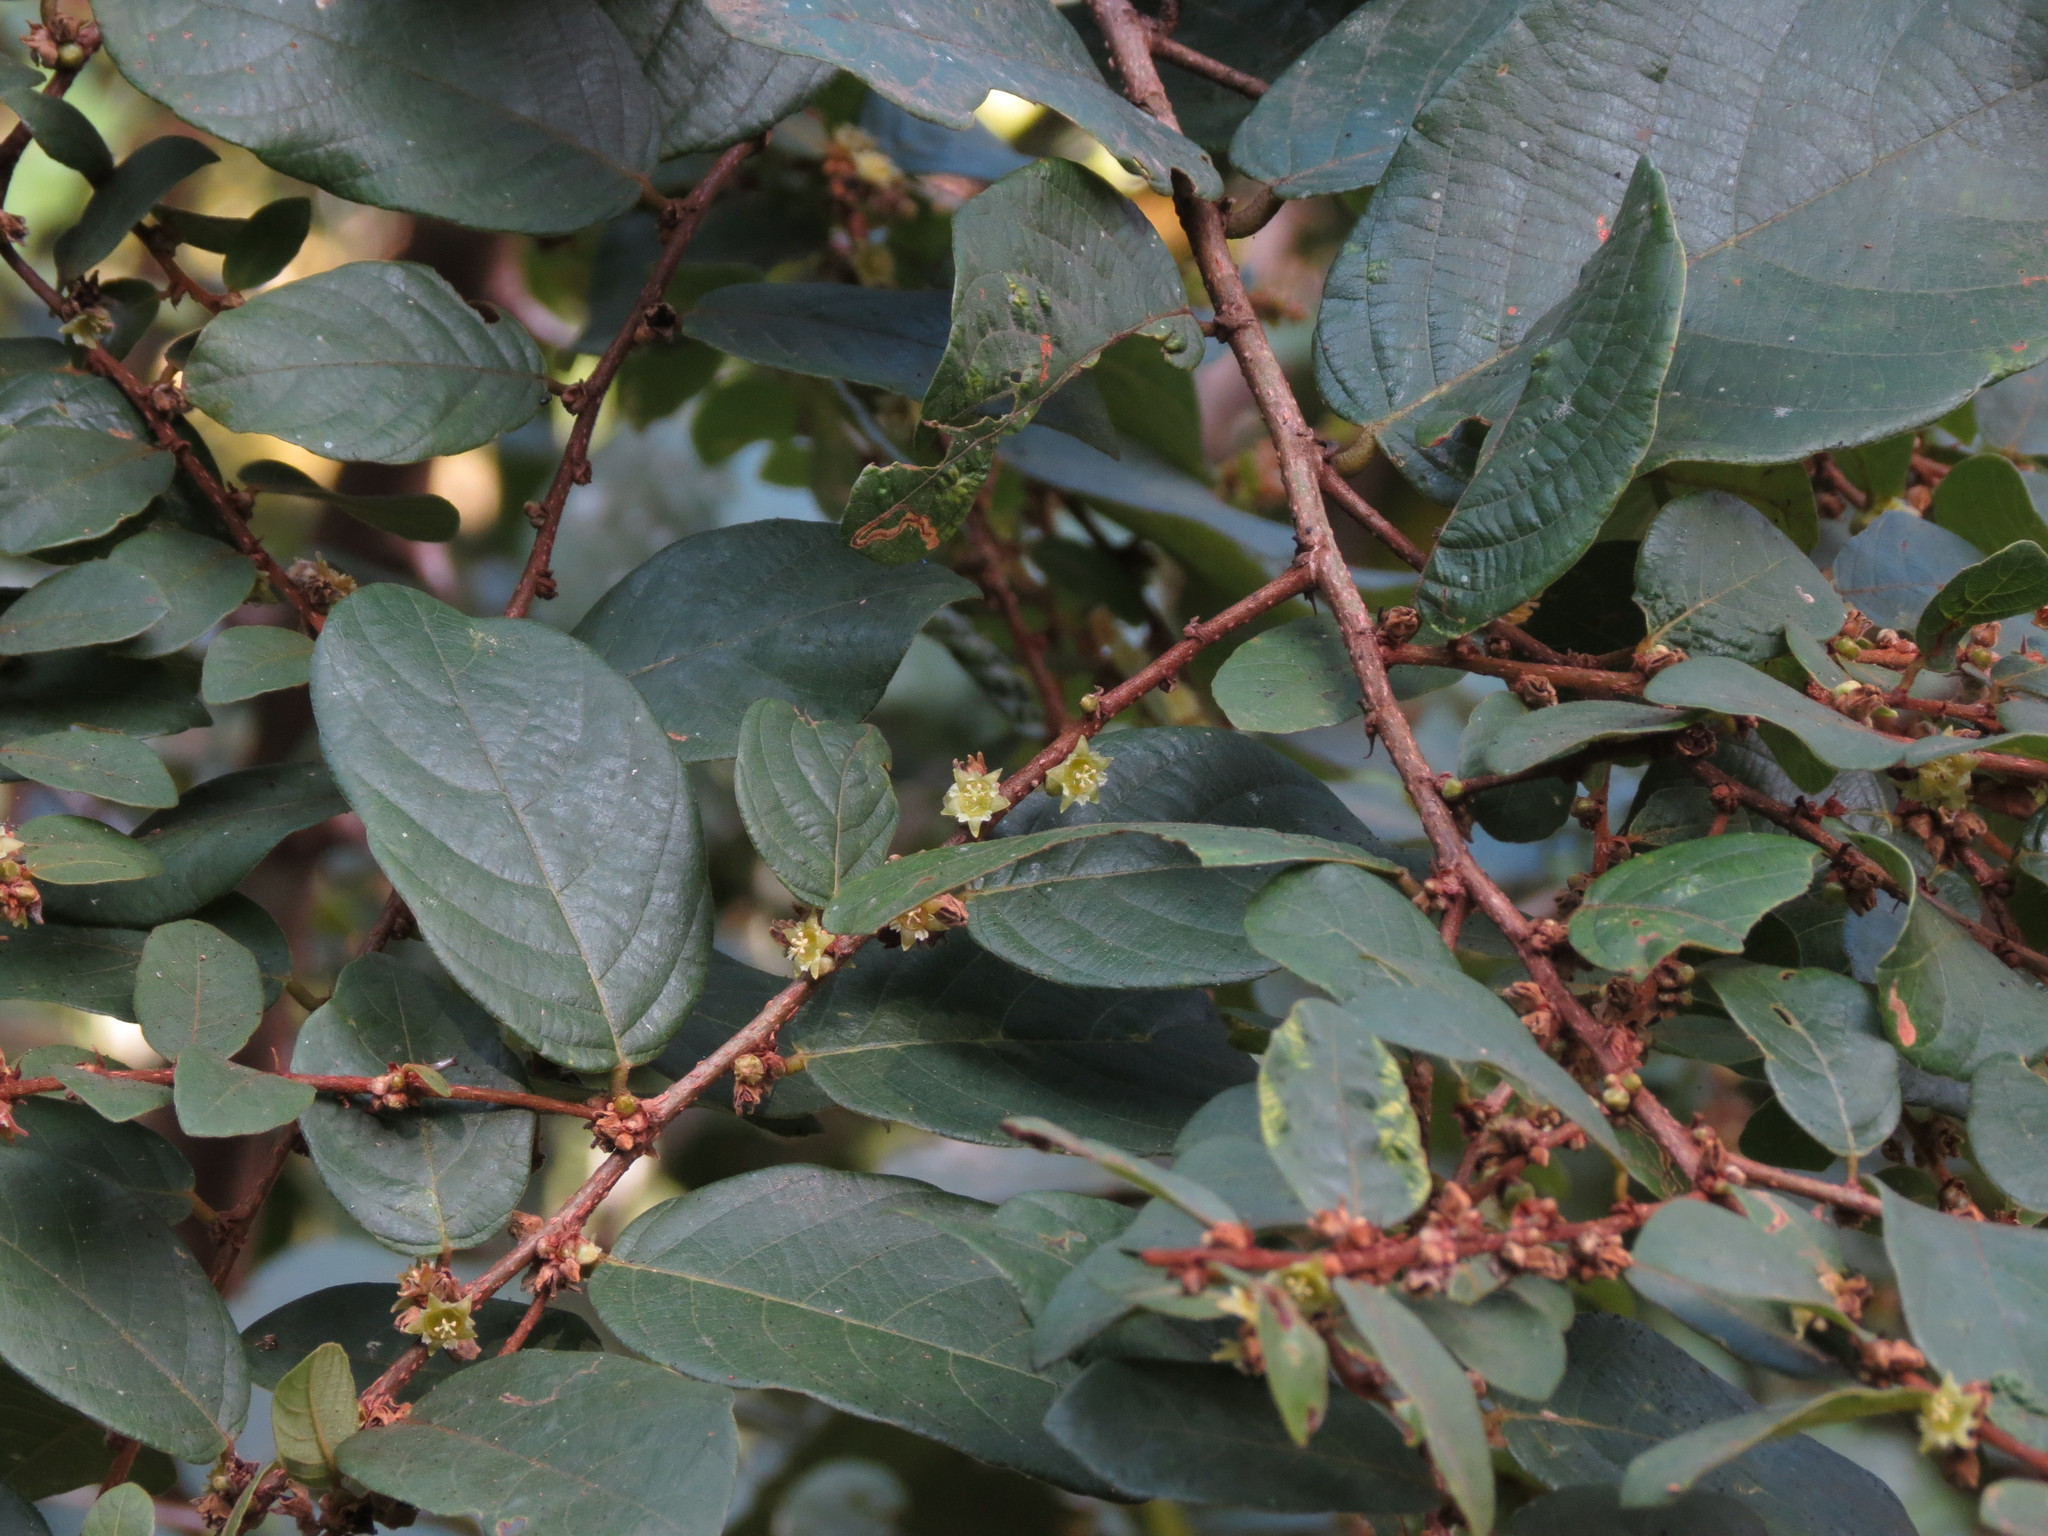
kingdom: Plantae
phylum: Tracheophyta
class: Magnoliopsida
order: Malpighiales
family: Phyllanthaceae
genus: Bridelia
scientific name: Bridelia stipularis
